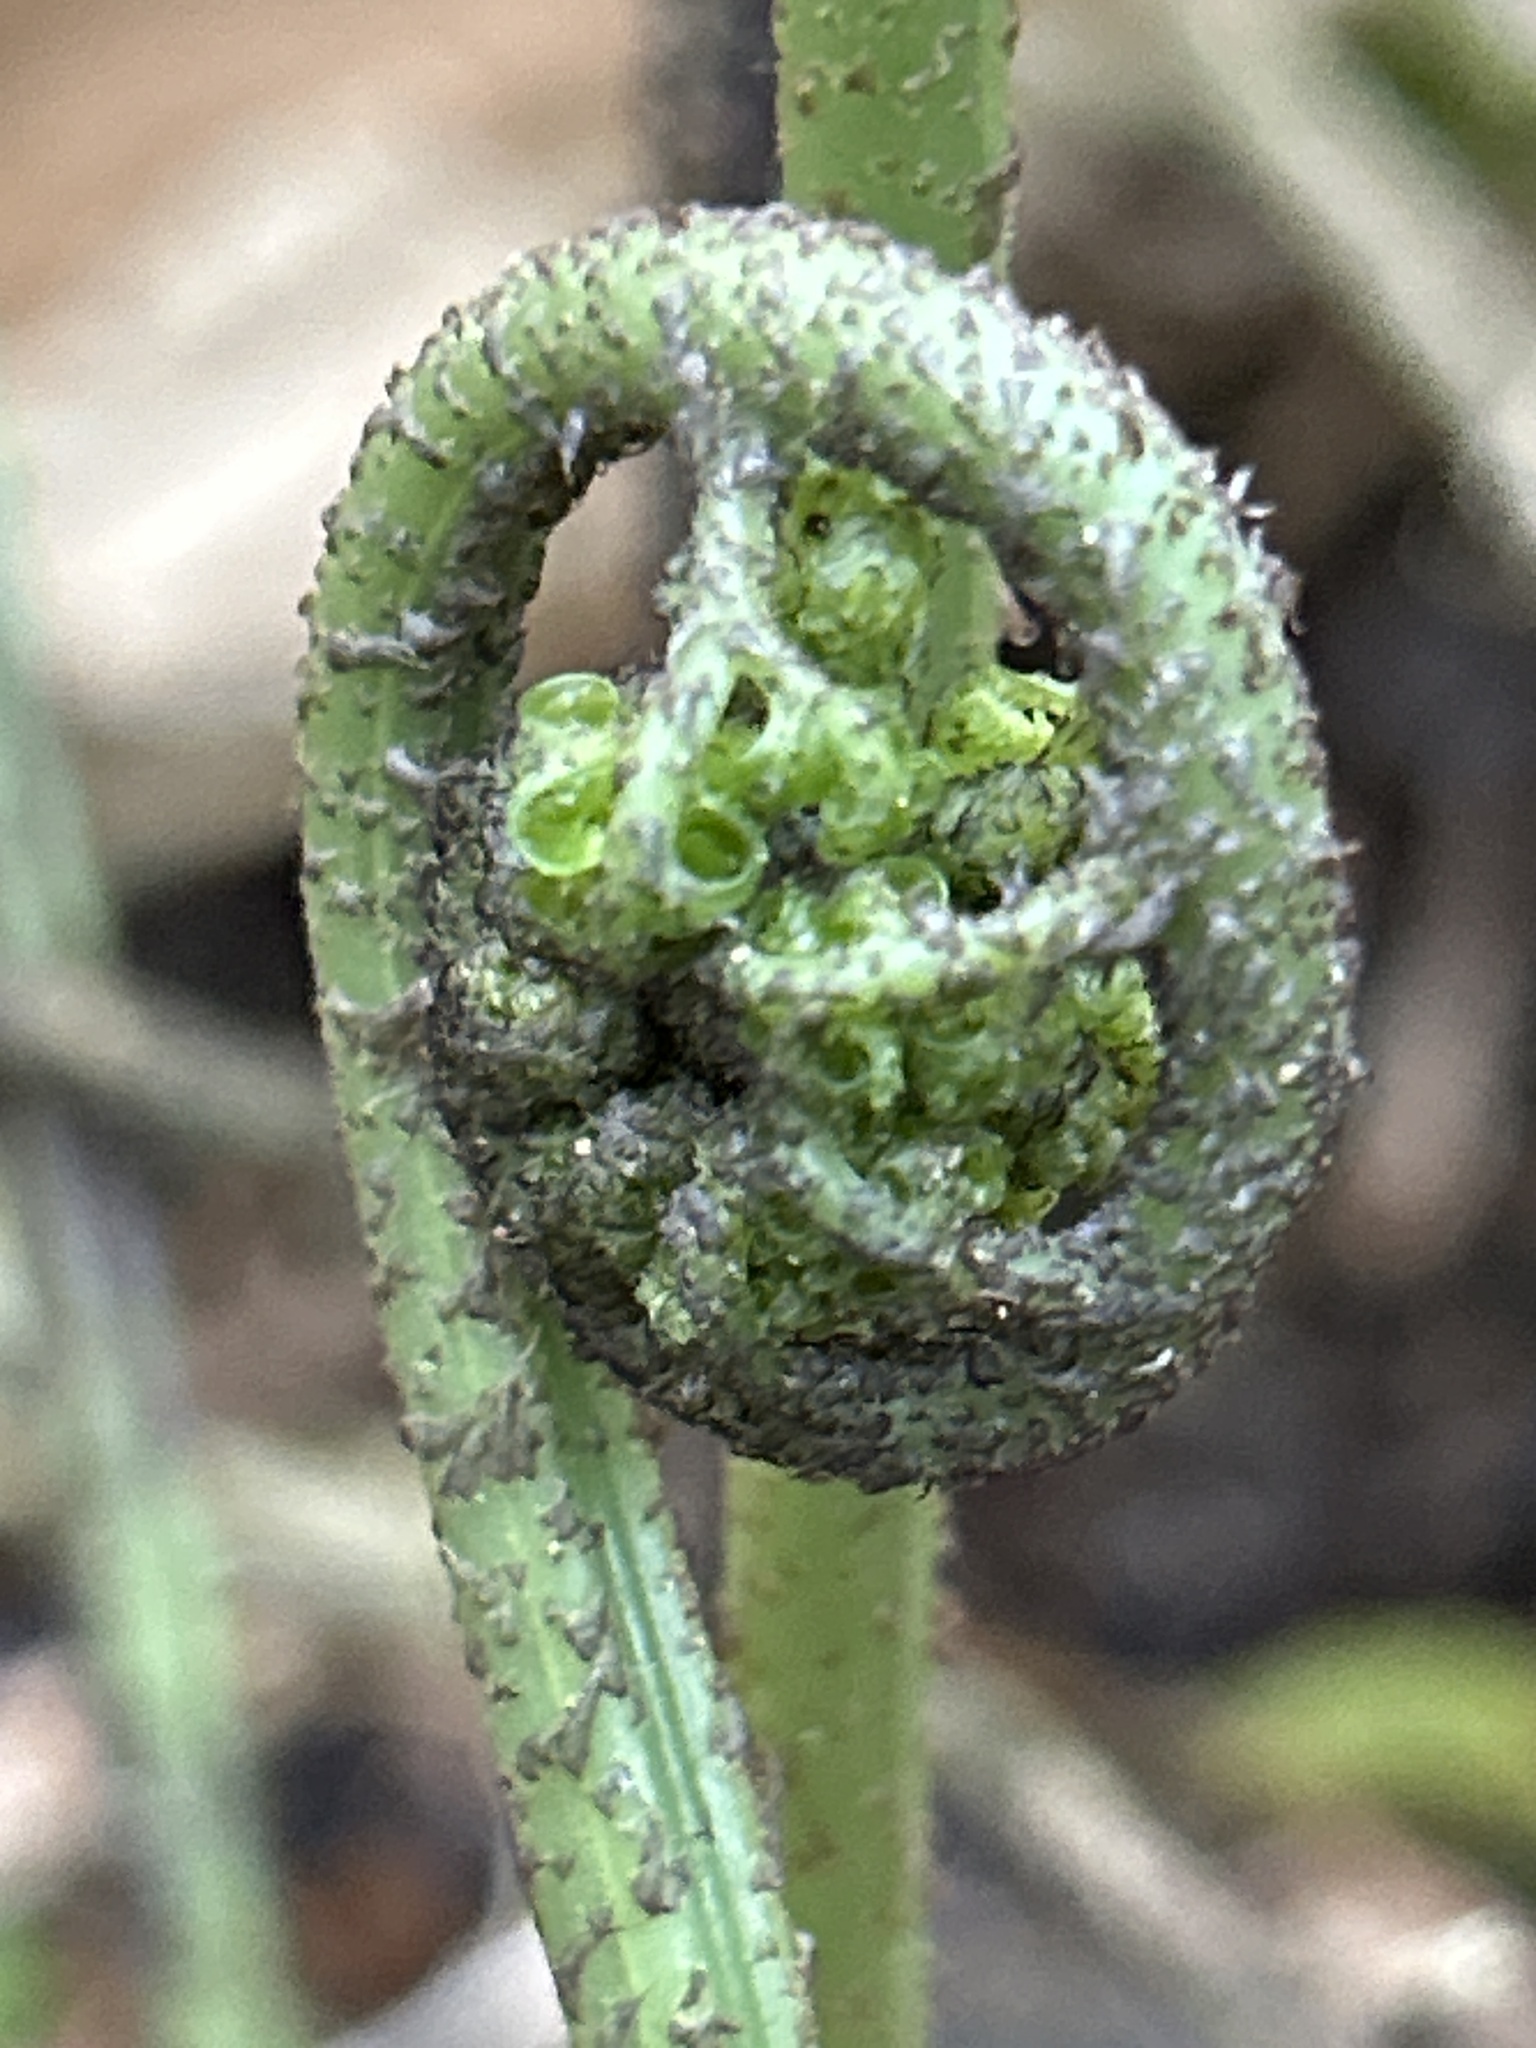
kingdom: Plantae
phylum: Tracheophyta
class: Polypodiopsida
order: Polypodiales
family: Dryopteridaceae
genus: Polystichum
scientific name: Polystichum vestitum
